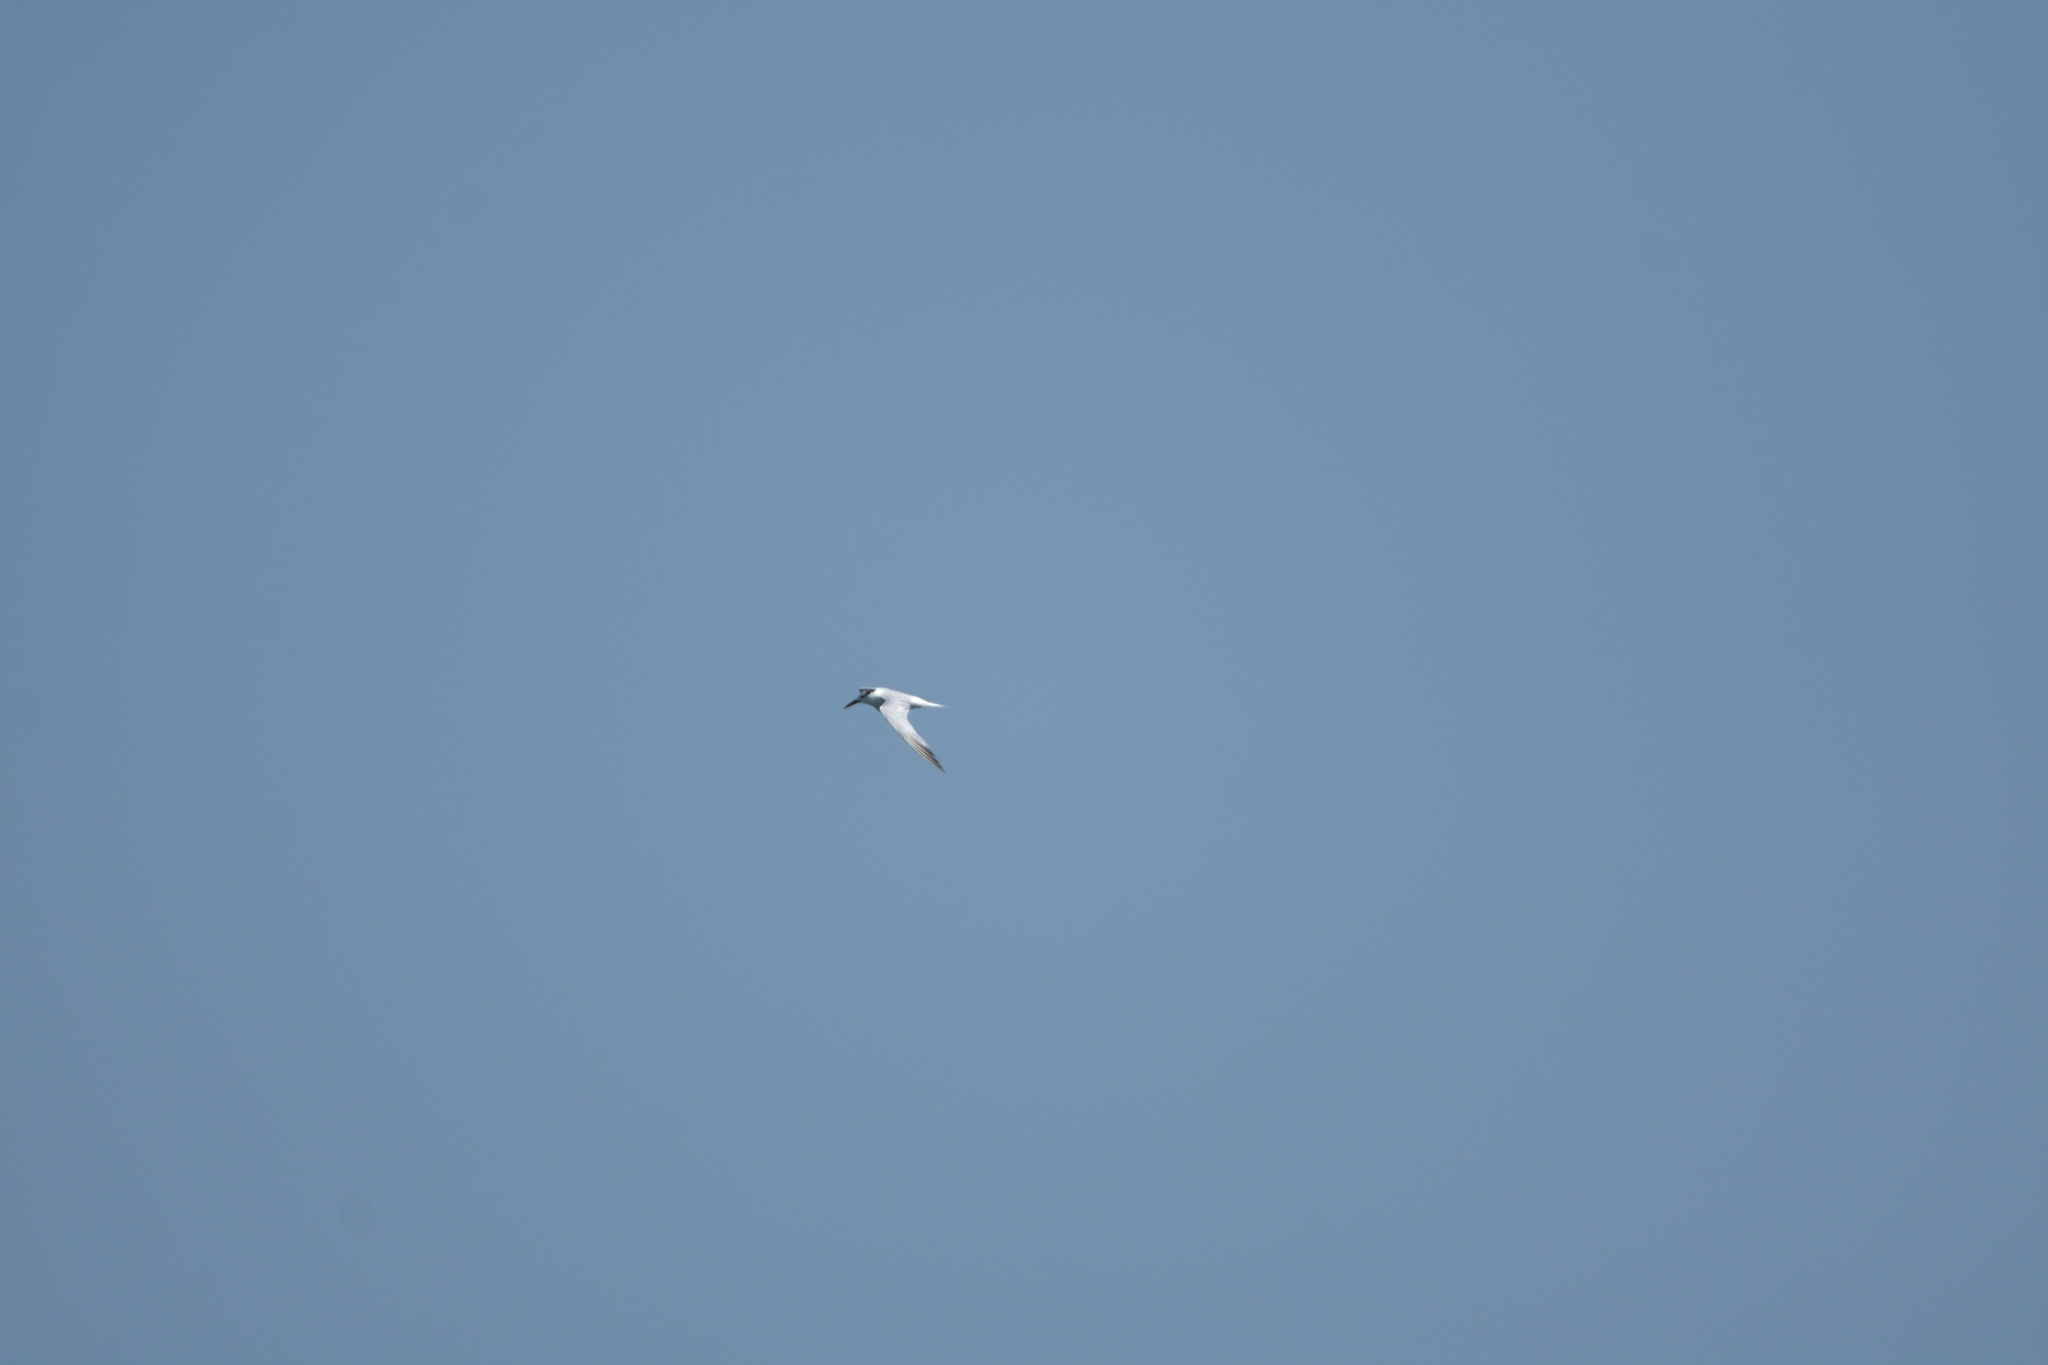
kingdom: Animalia
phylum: Chordata
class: Aves
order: Charadriiformes
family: Laridae
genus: Thalasseus
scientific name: Thalasseus sandvicensis
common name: Sandwich tern
